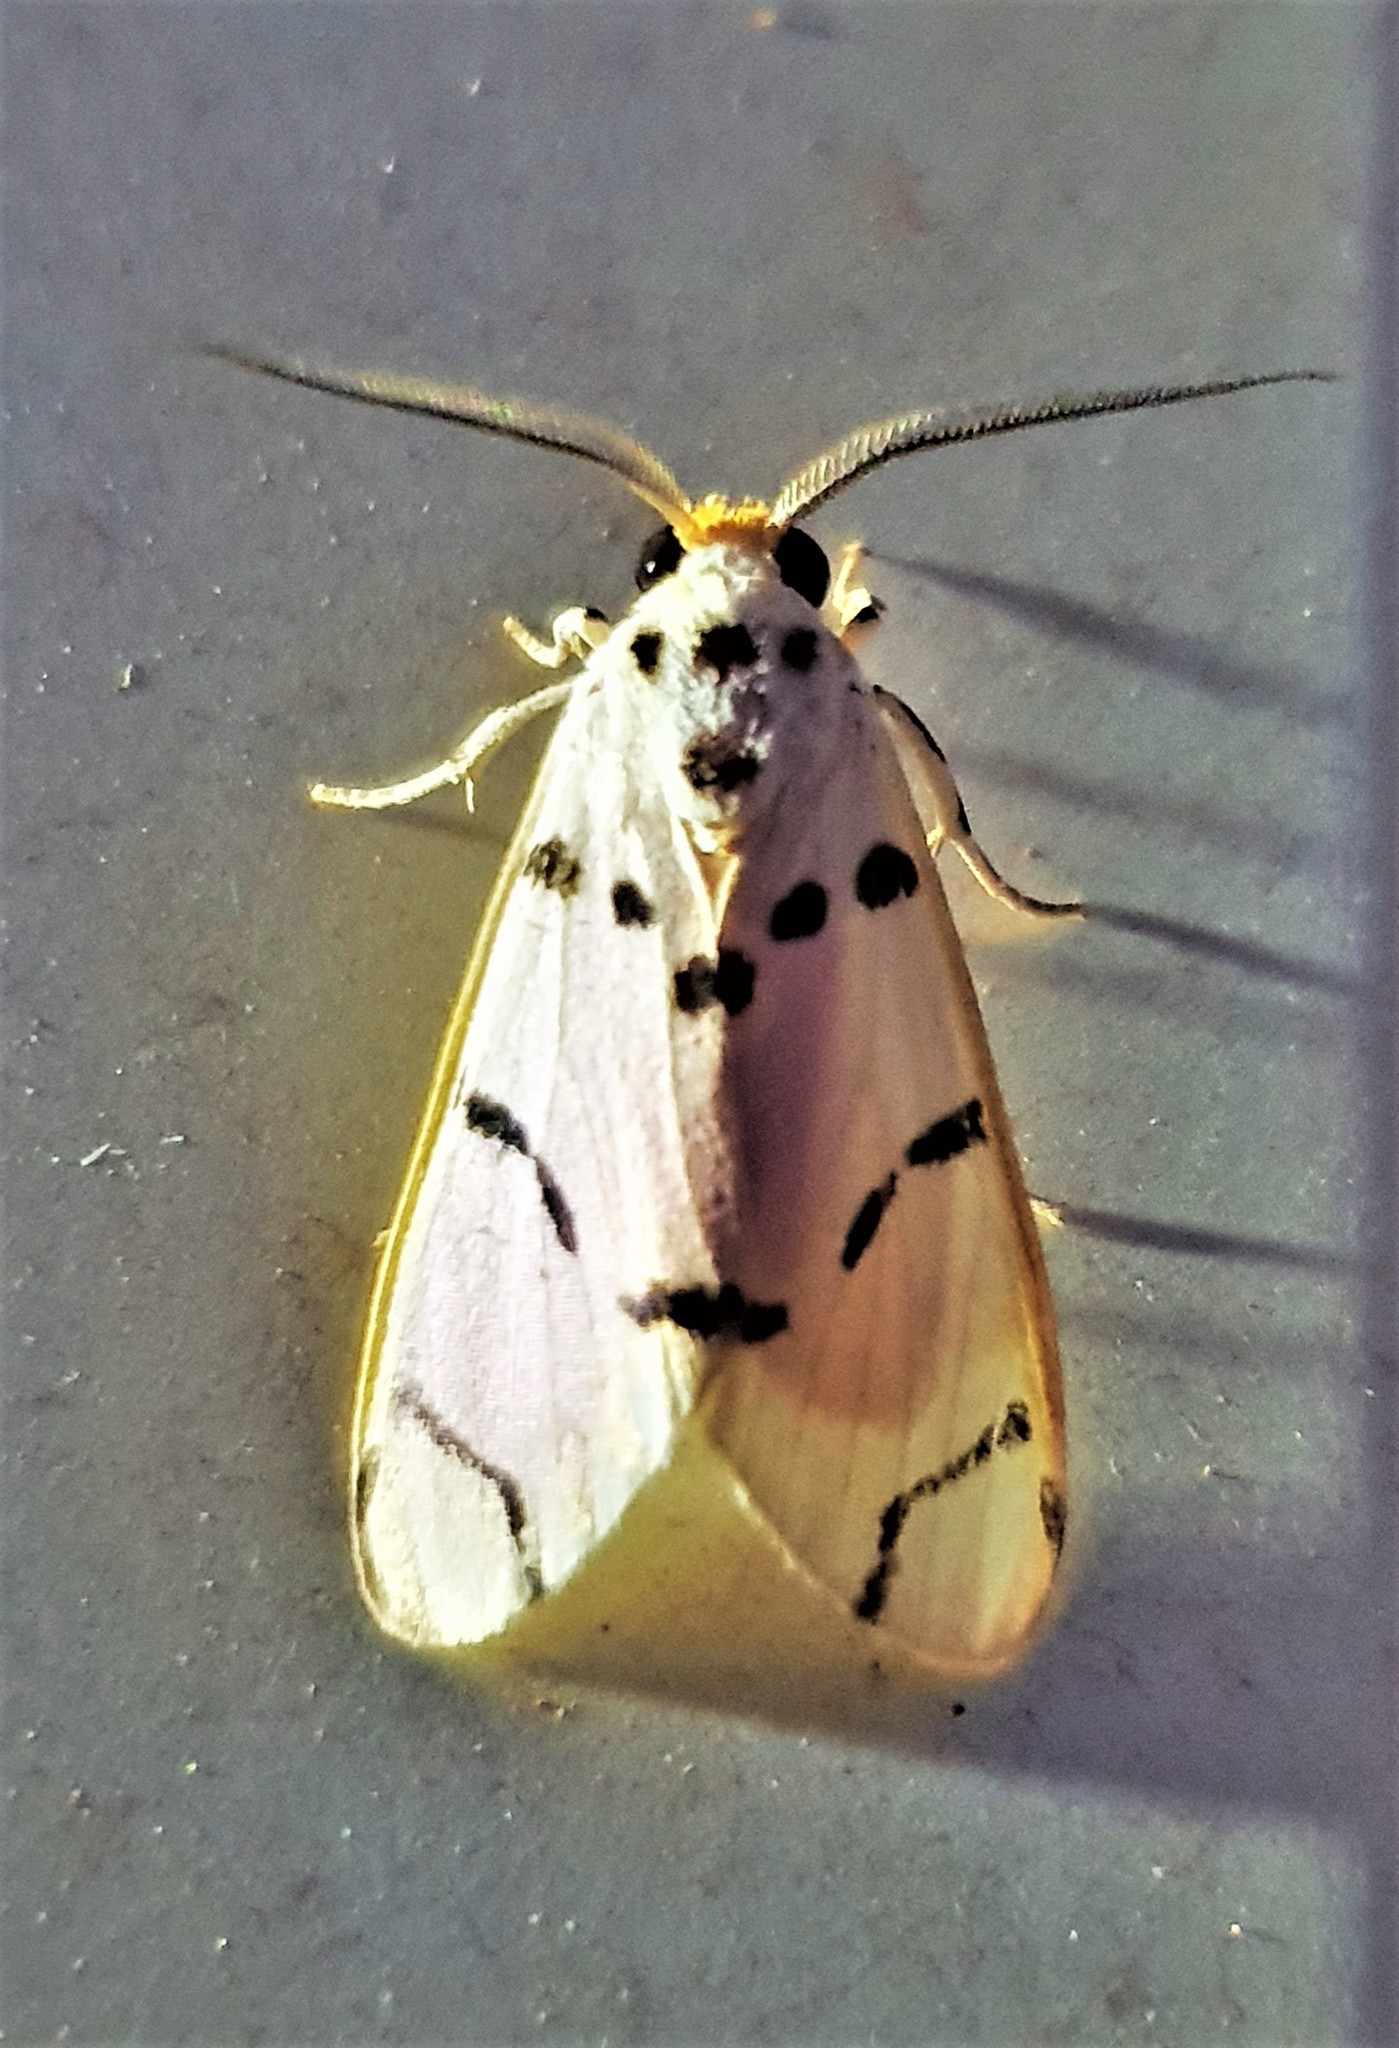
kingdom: Animalia
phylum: Arthropoda
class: Insecta
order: Lepidoptera
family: Erebidae
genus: Aphyle
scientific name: Aphyle margaritaceus
